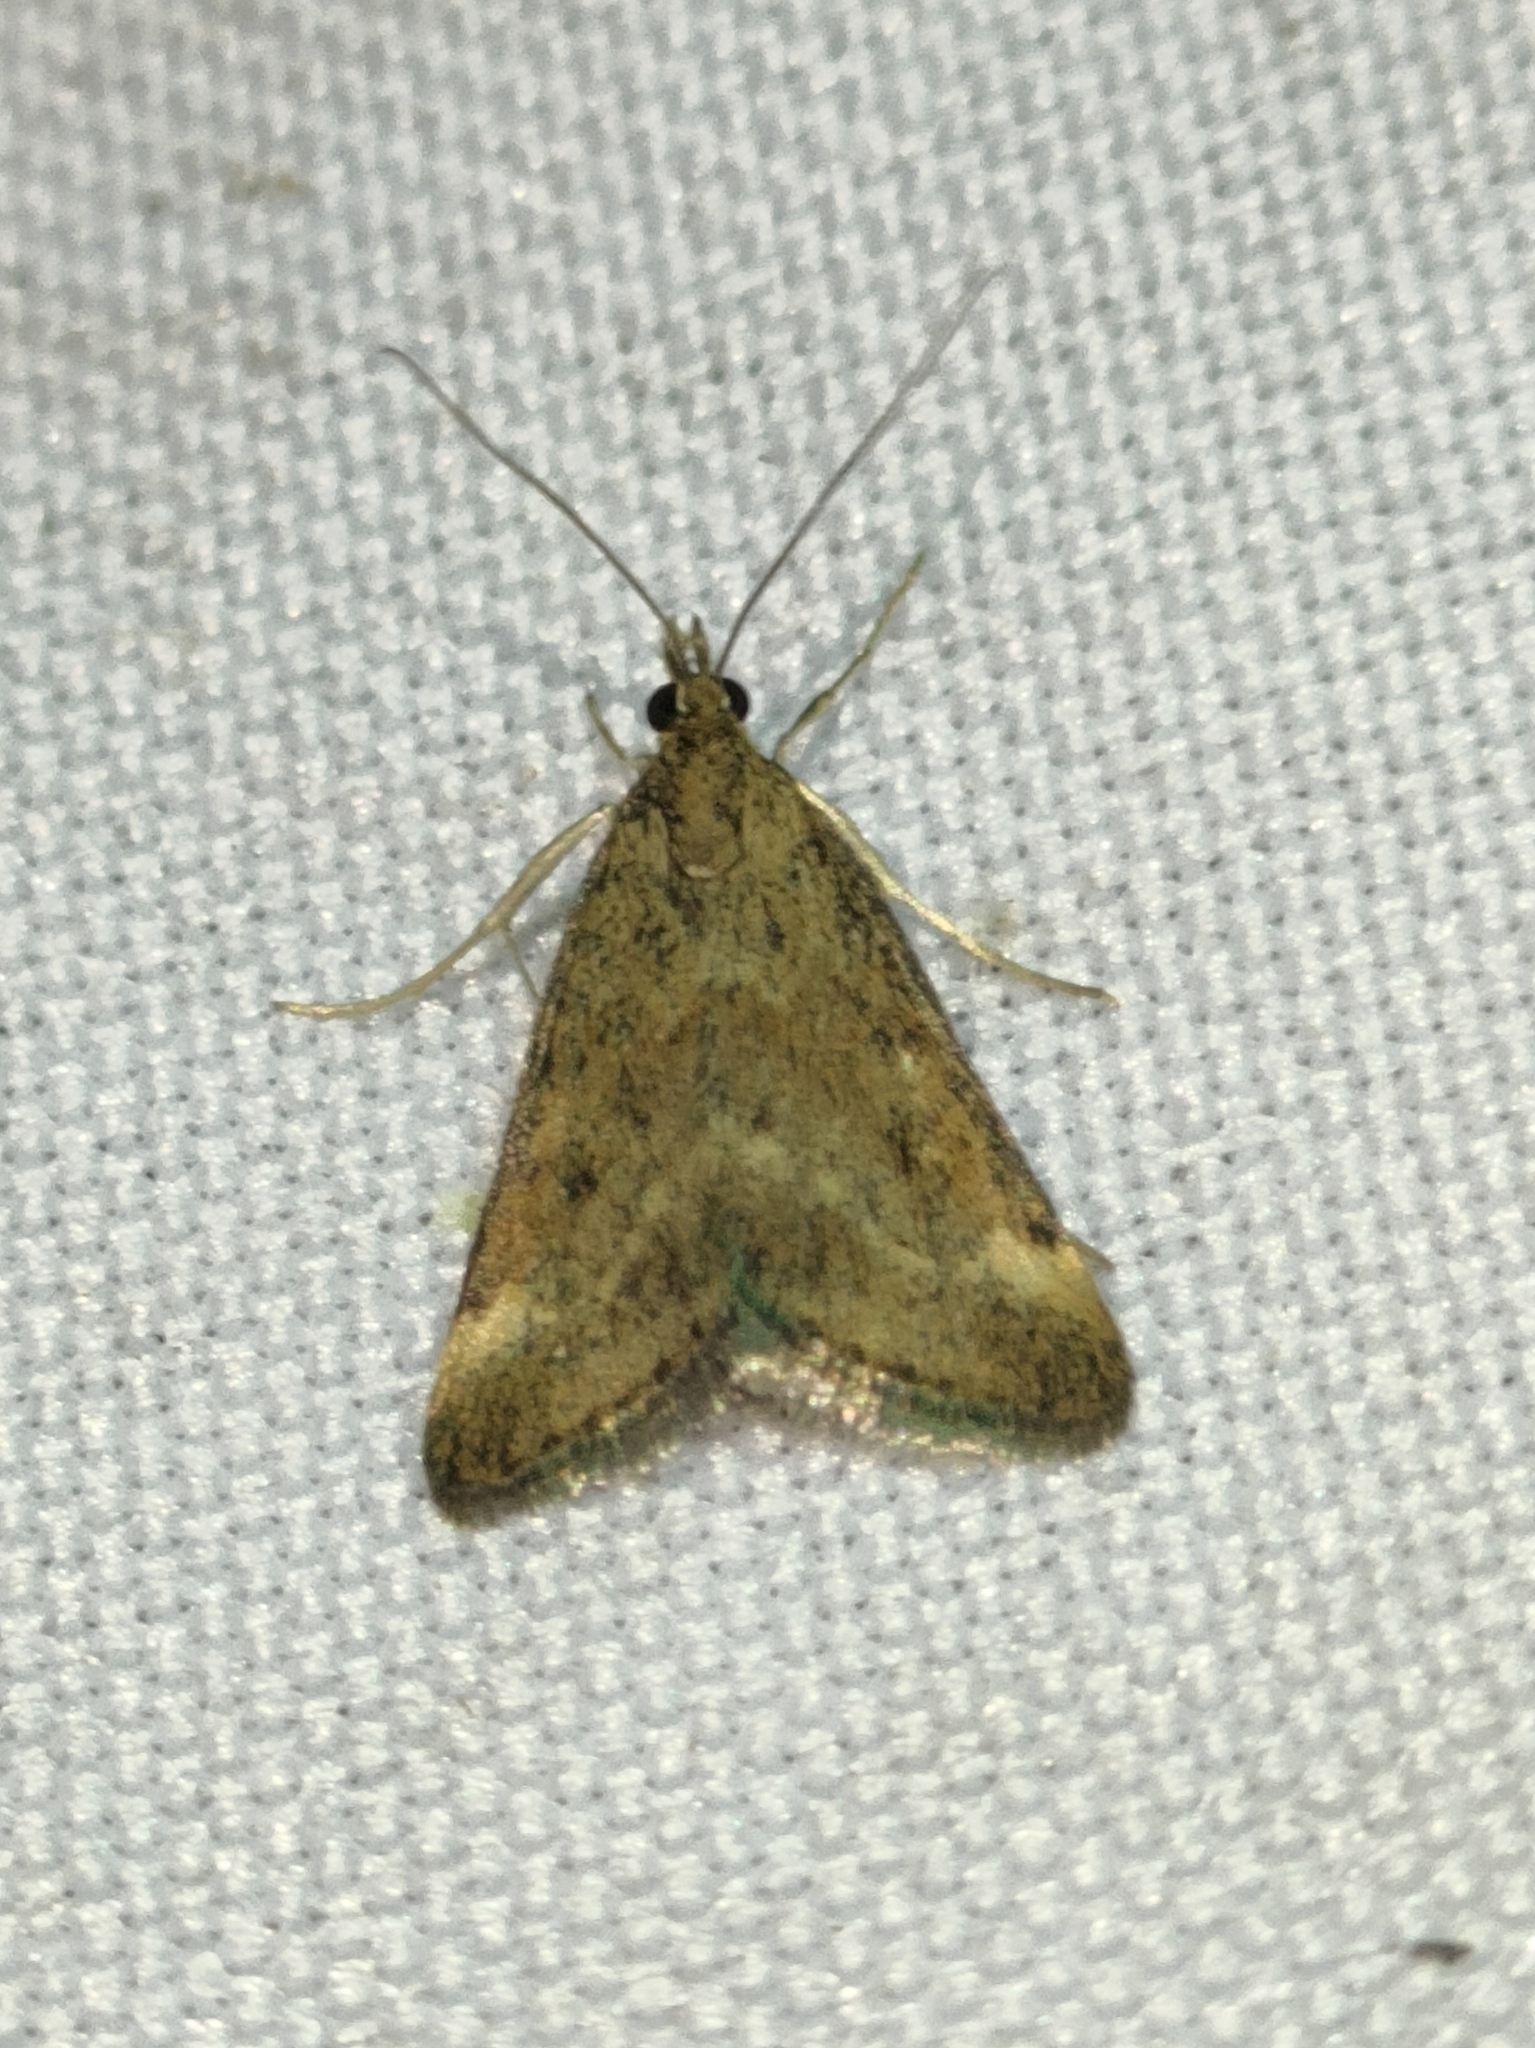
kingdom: Animalia
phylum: Arthropoda
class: Insecta
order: Lepidoptera
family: Crambidae
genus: Pyrausta
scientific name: Pyrausta despicata
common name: Straw-barred pearl
